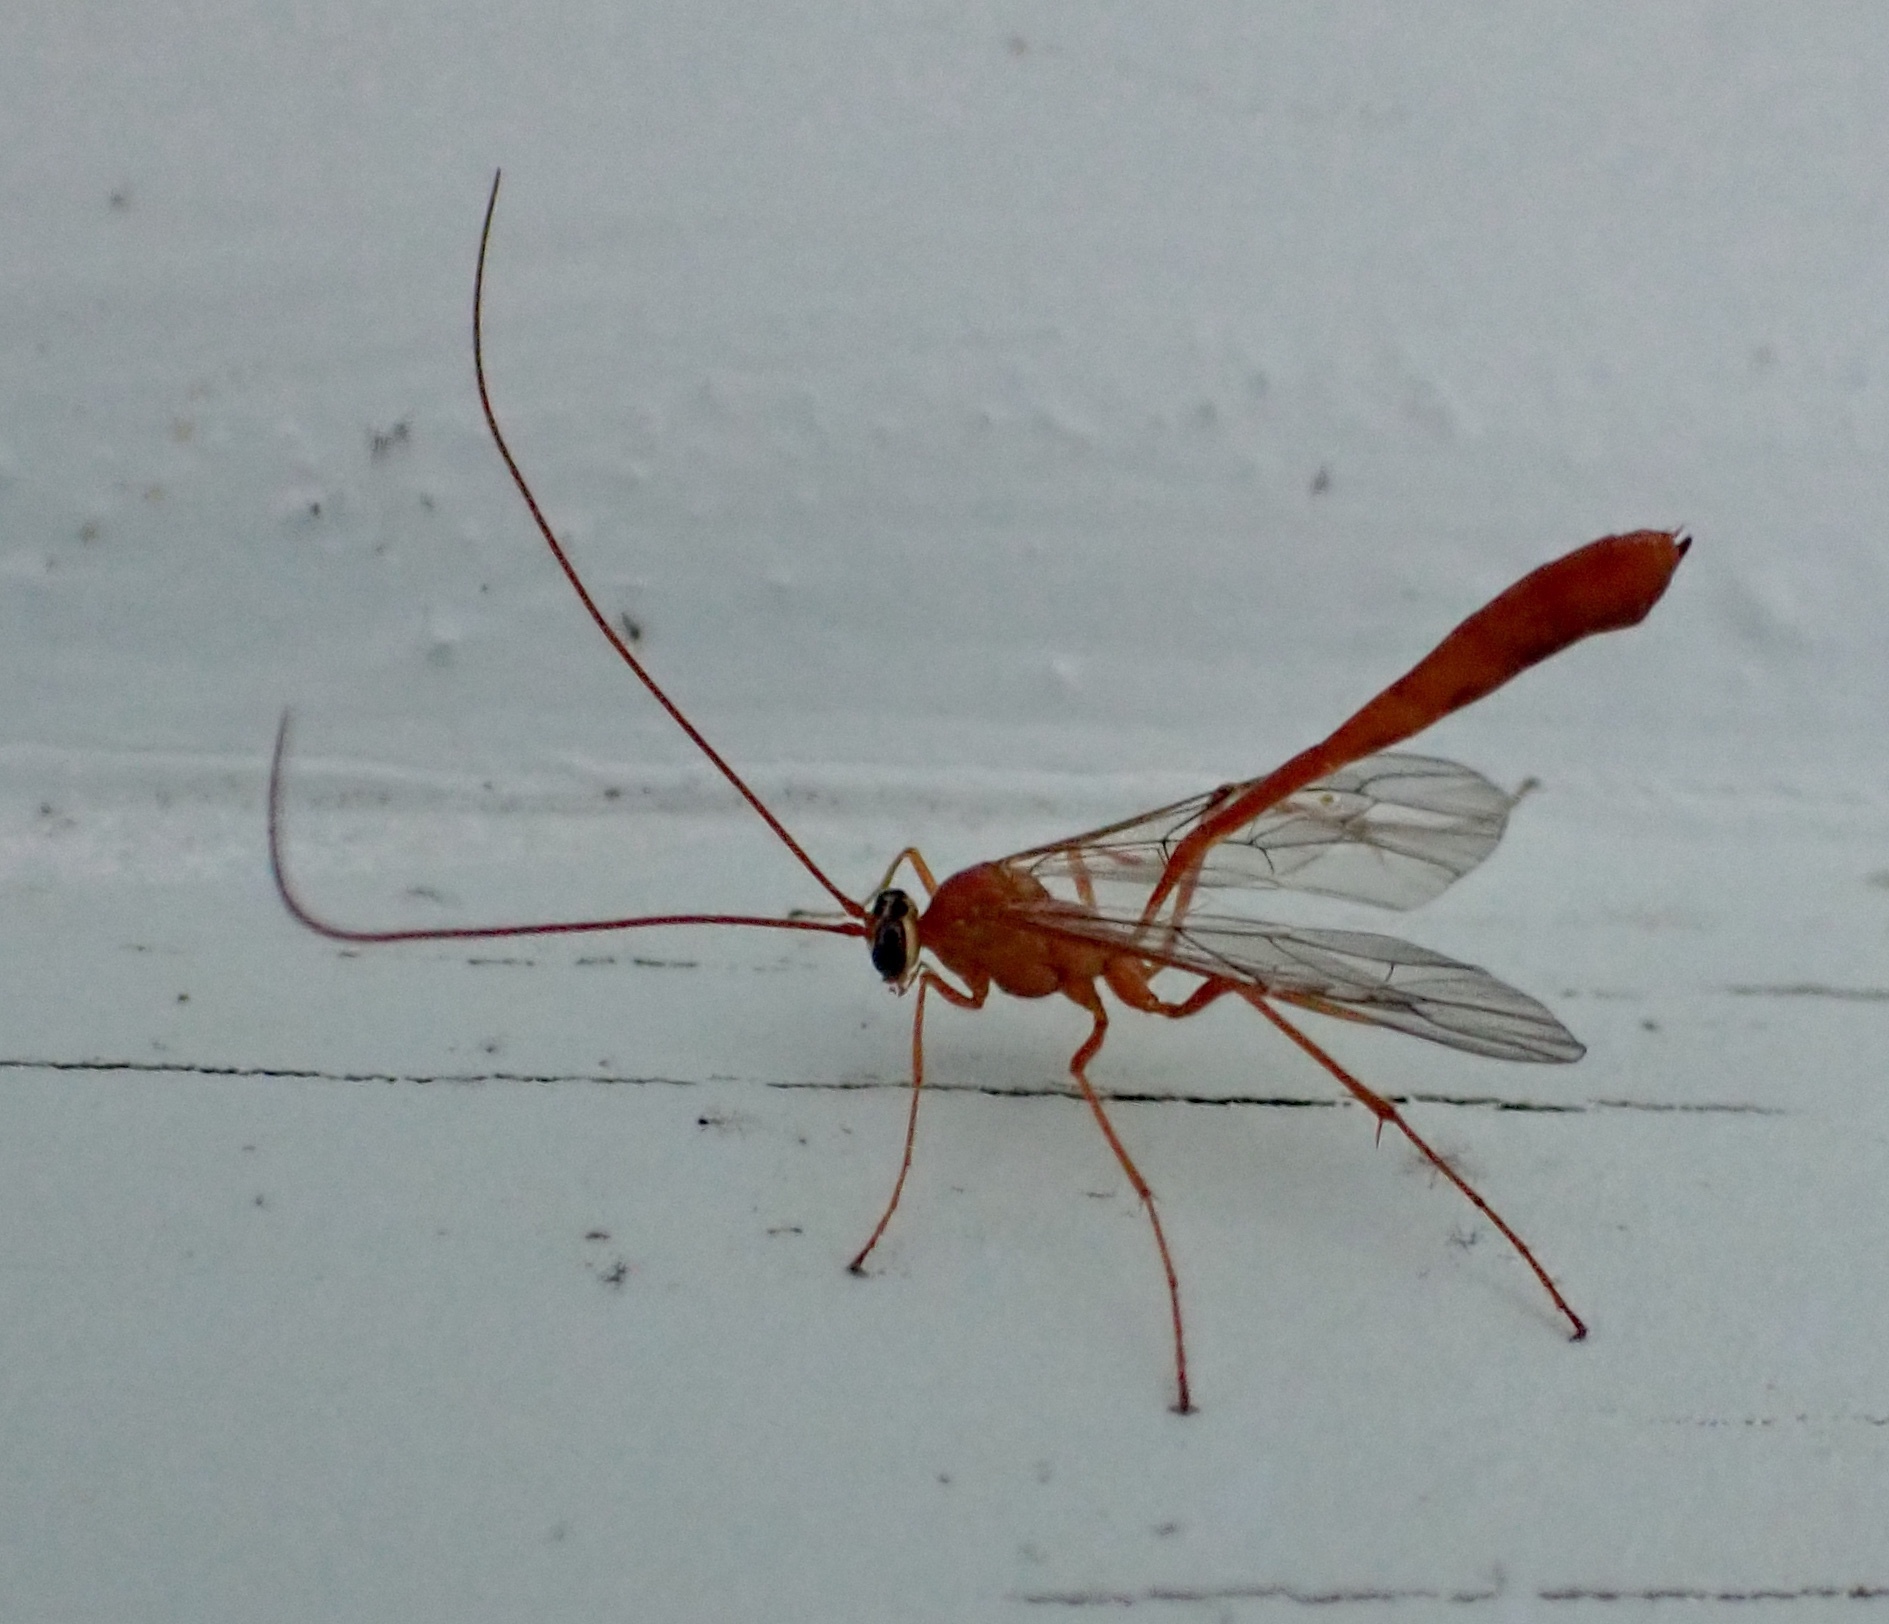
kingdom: Animalia
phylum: Arthropoda
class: Insecta
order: Hymenoptera
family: Ichneumonidae
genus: Enicospilus
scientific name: Enicospilus purgatus
